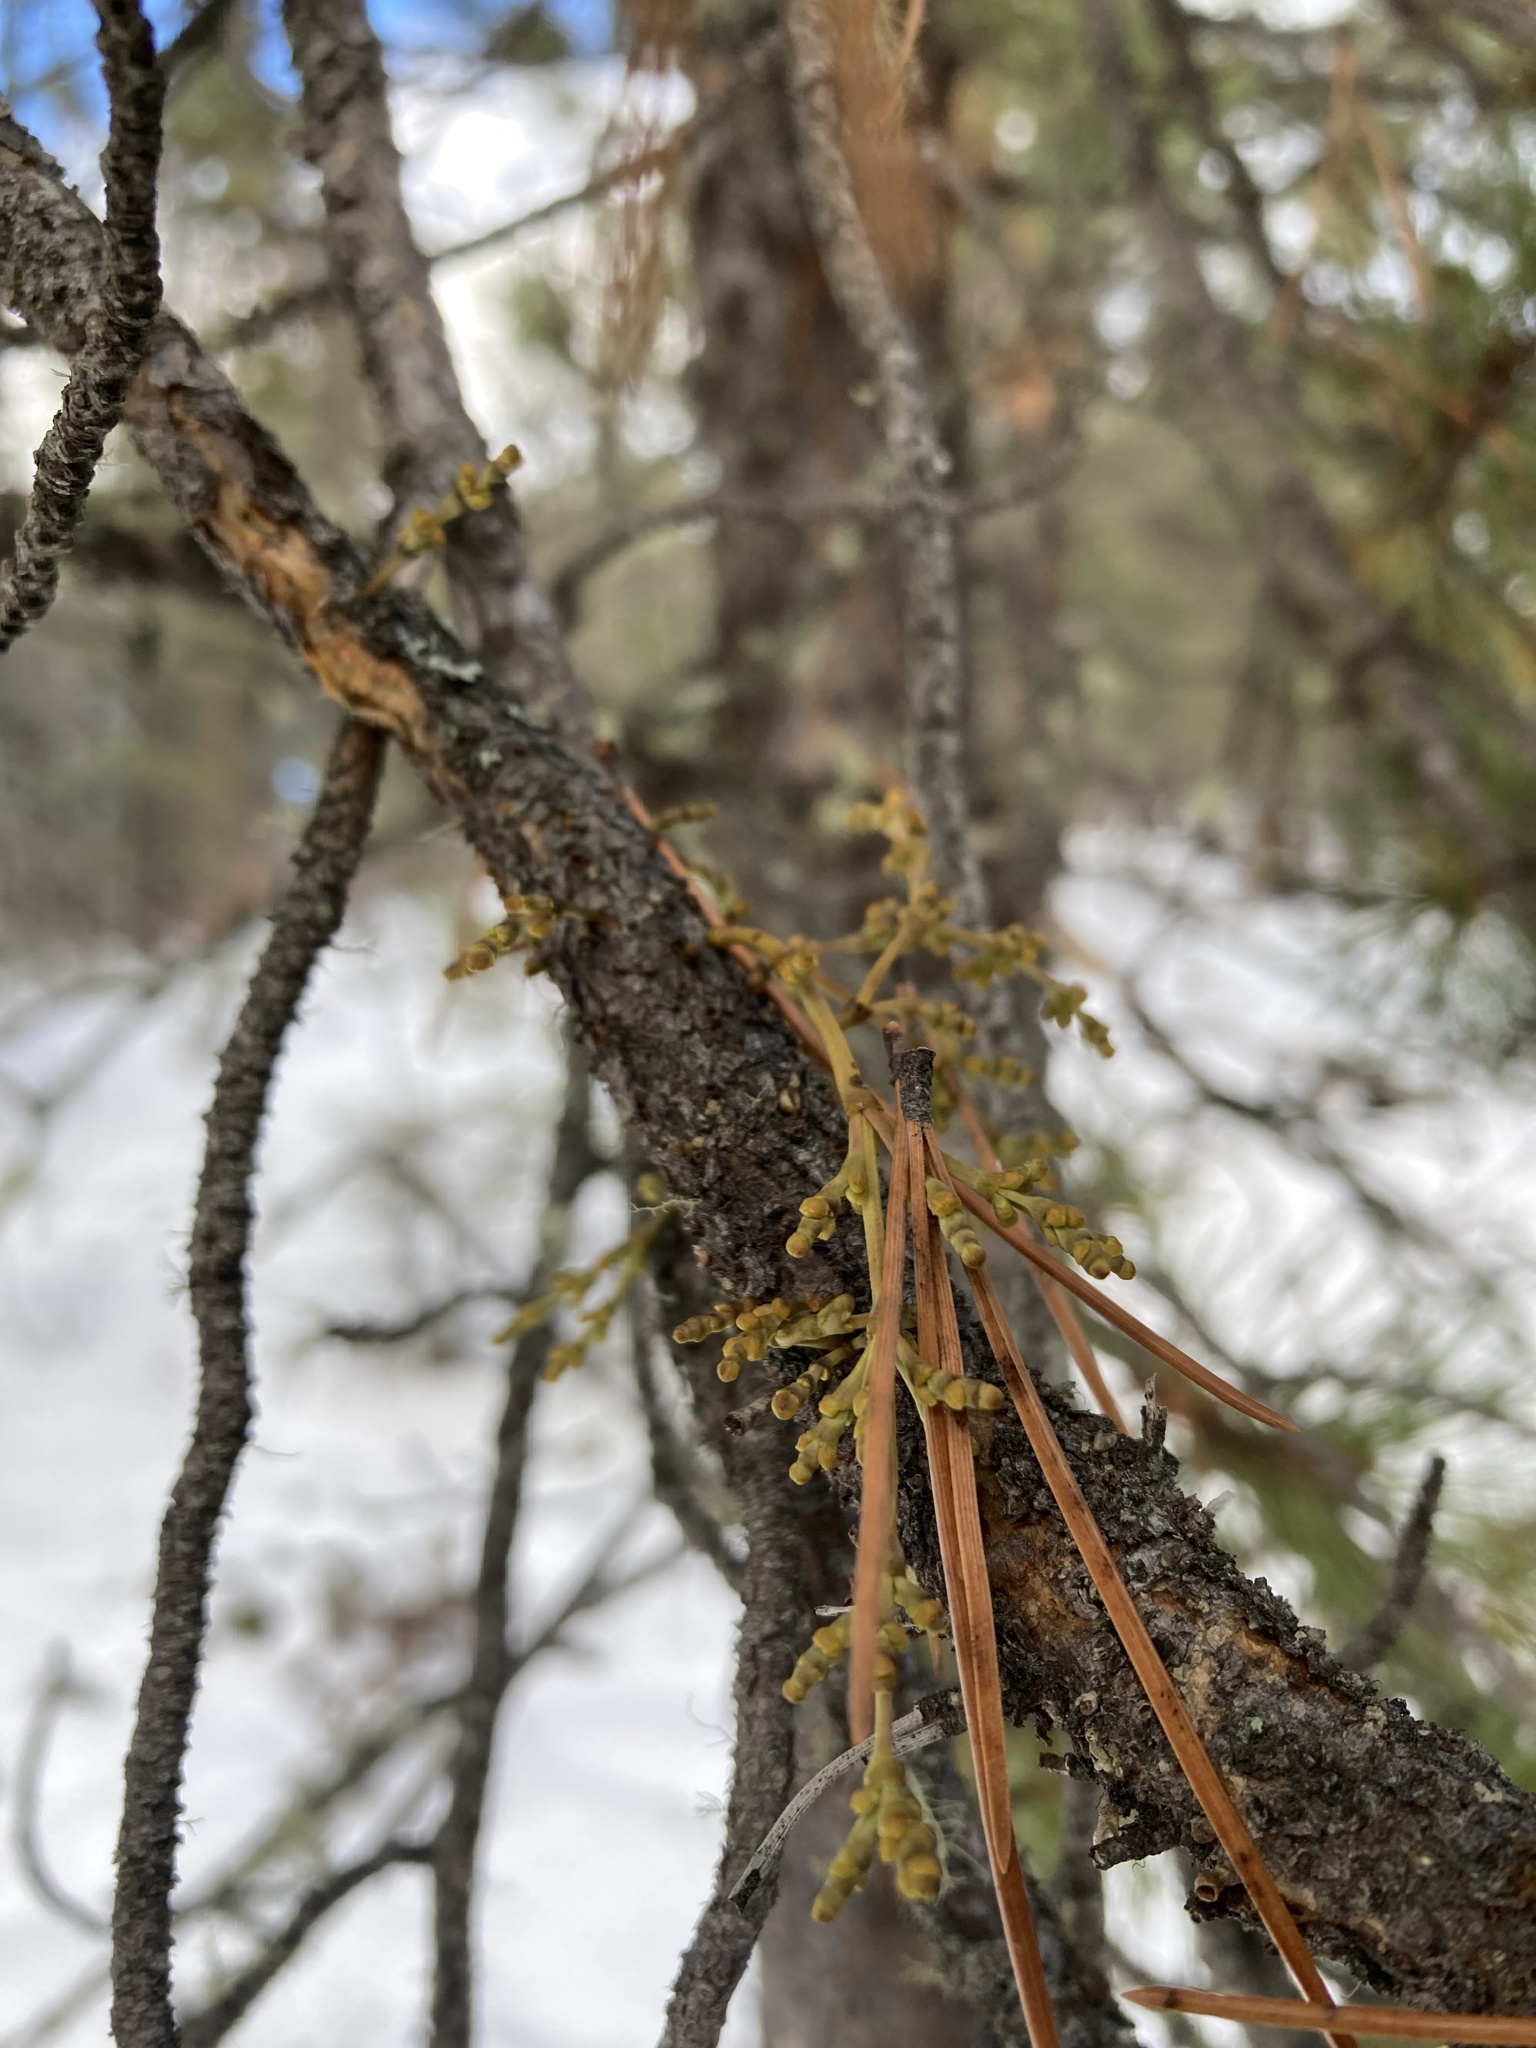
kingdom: Plantae
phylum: Tracheophyta
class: Magnoliopsida
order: Santalales
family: Viscaceae
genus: Arceuthobium
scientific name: Arceuthobium americanum
